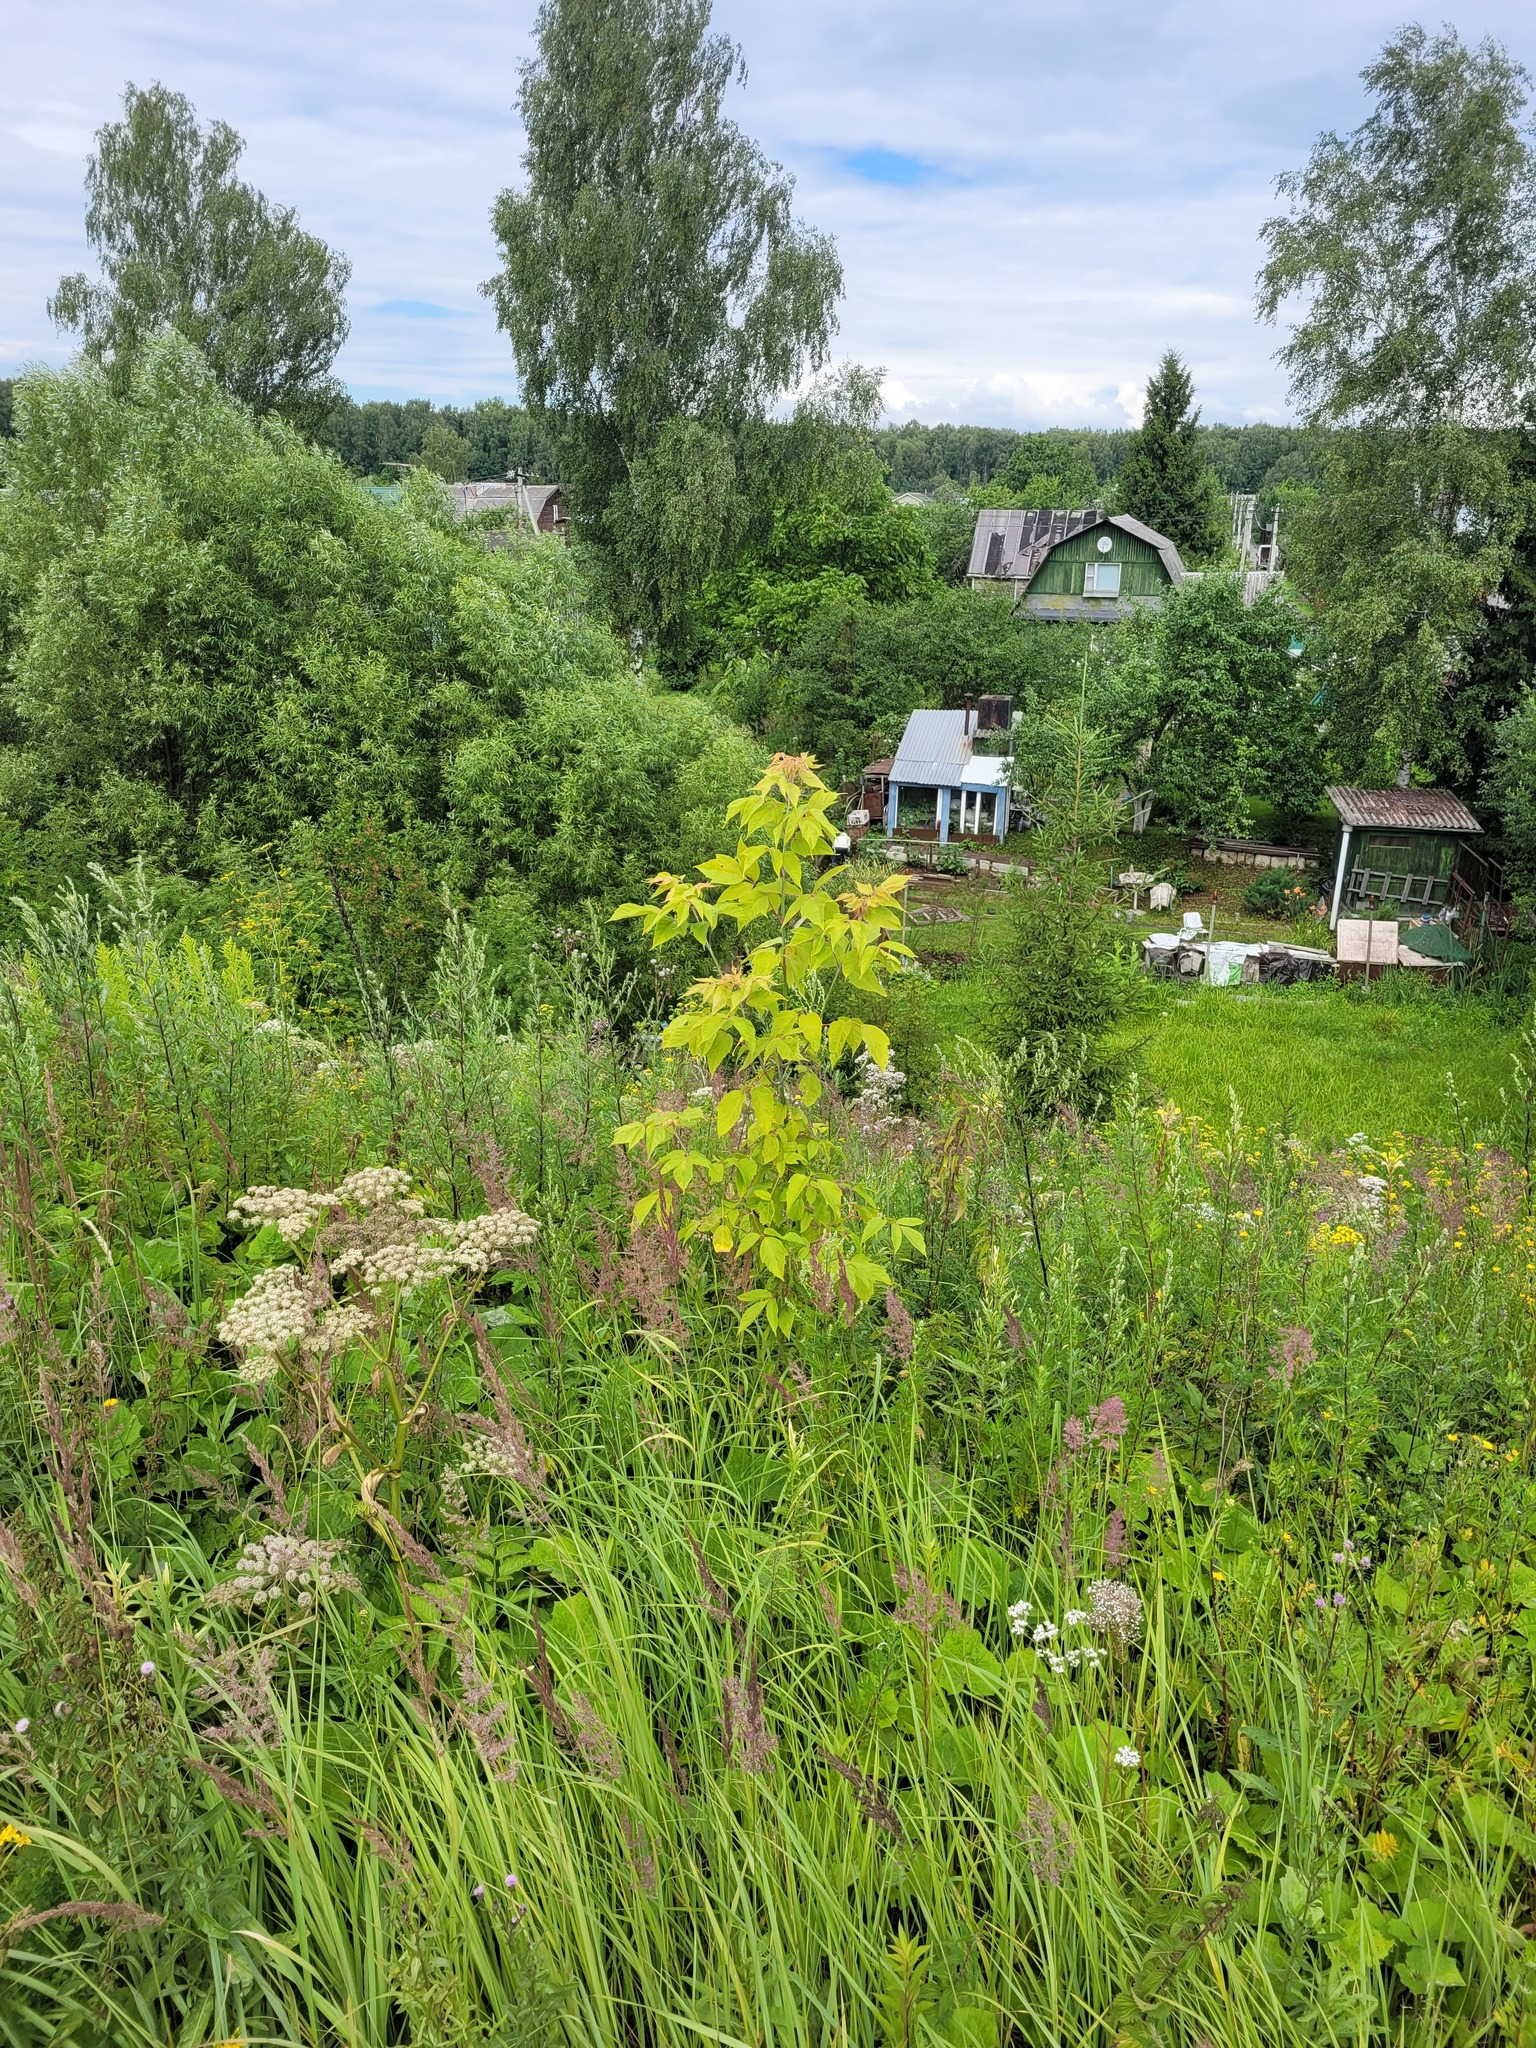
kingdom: Plantae
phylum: Tracheophyta
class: Magnoliopsida
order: Sapindales
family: Sapindaceae
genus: Acer
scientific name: Acer negundo
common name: Ashleaf maple
